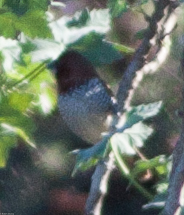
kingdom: Animalia
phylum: Chordata
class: Aves
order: Passeriformes
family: Estrildidae
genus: Lonchura
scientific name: Lonchura punctulata
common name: Scaly-breasted munia
